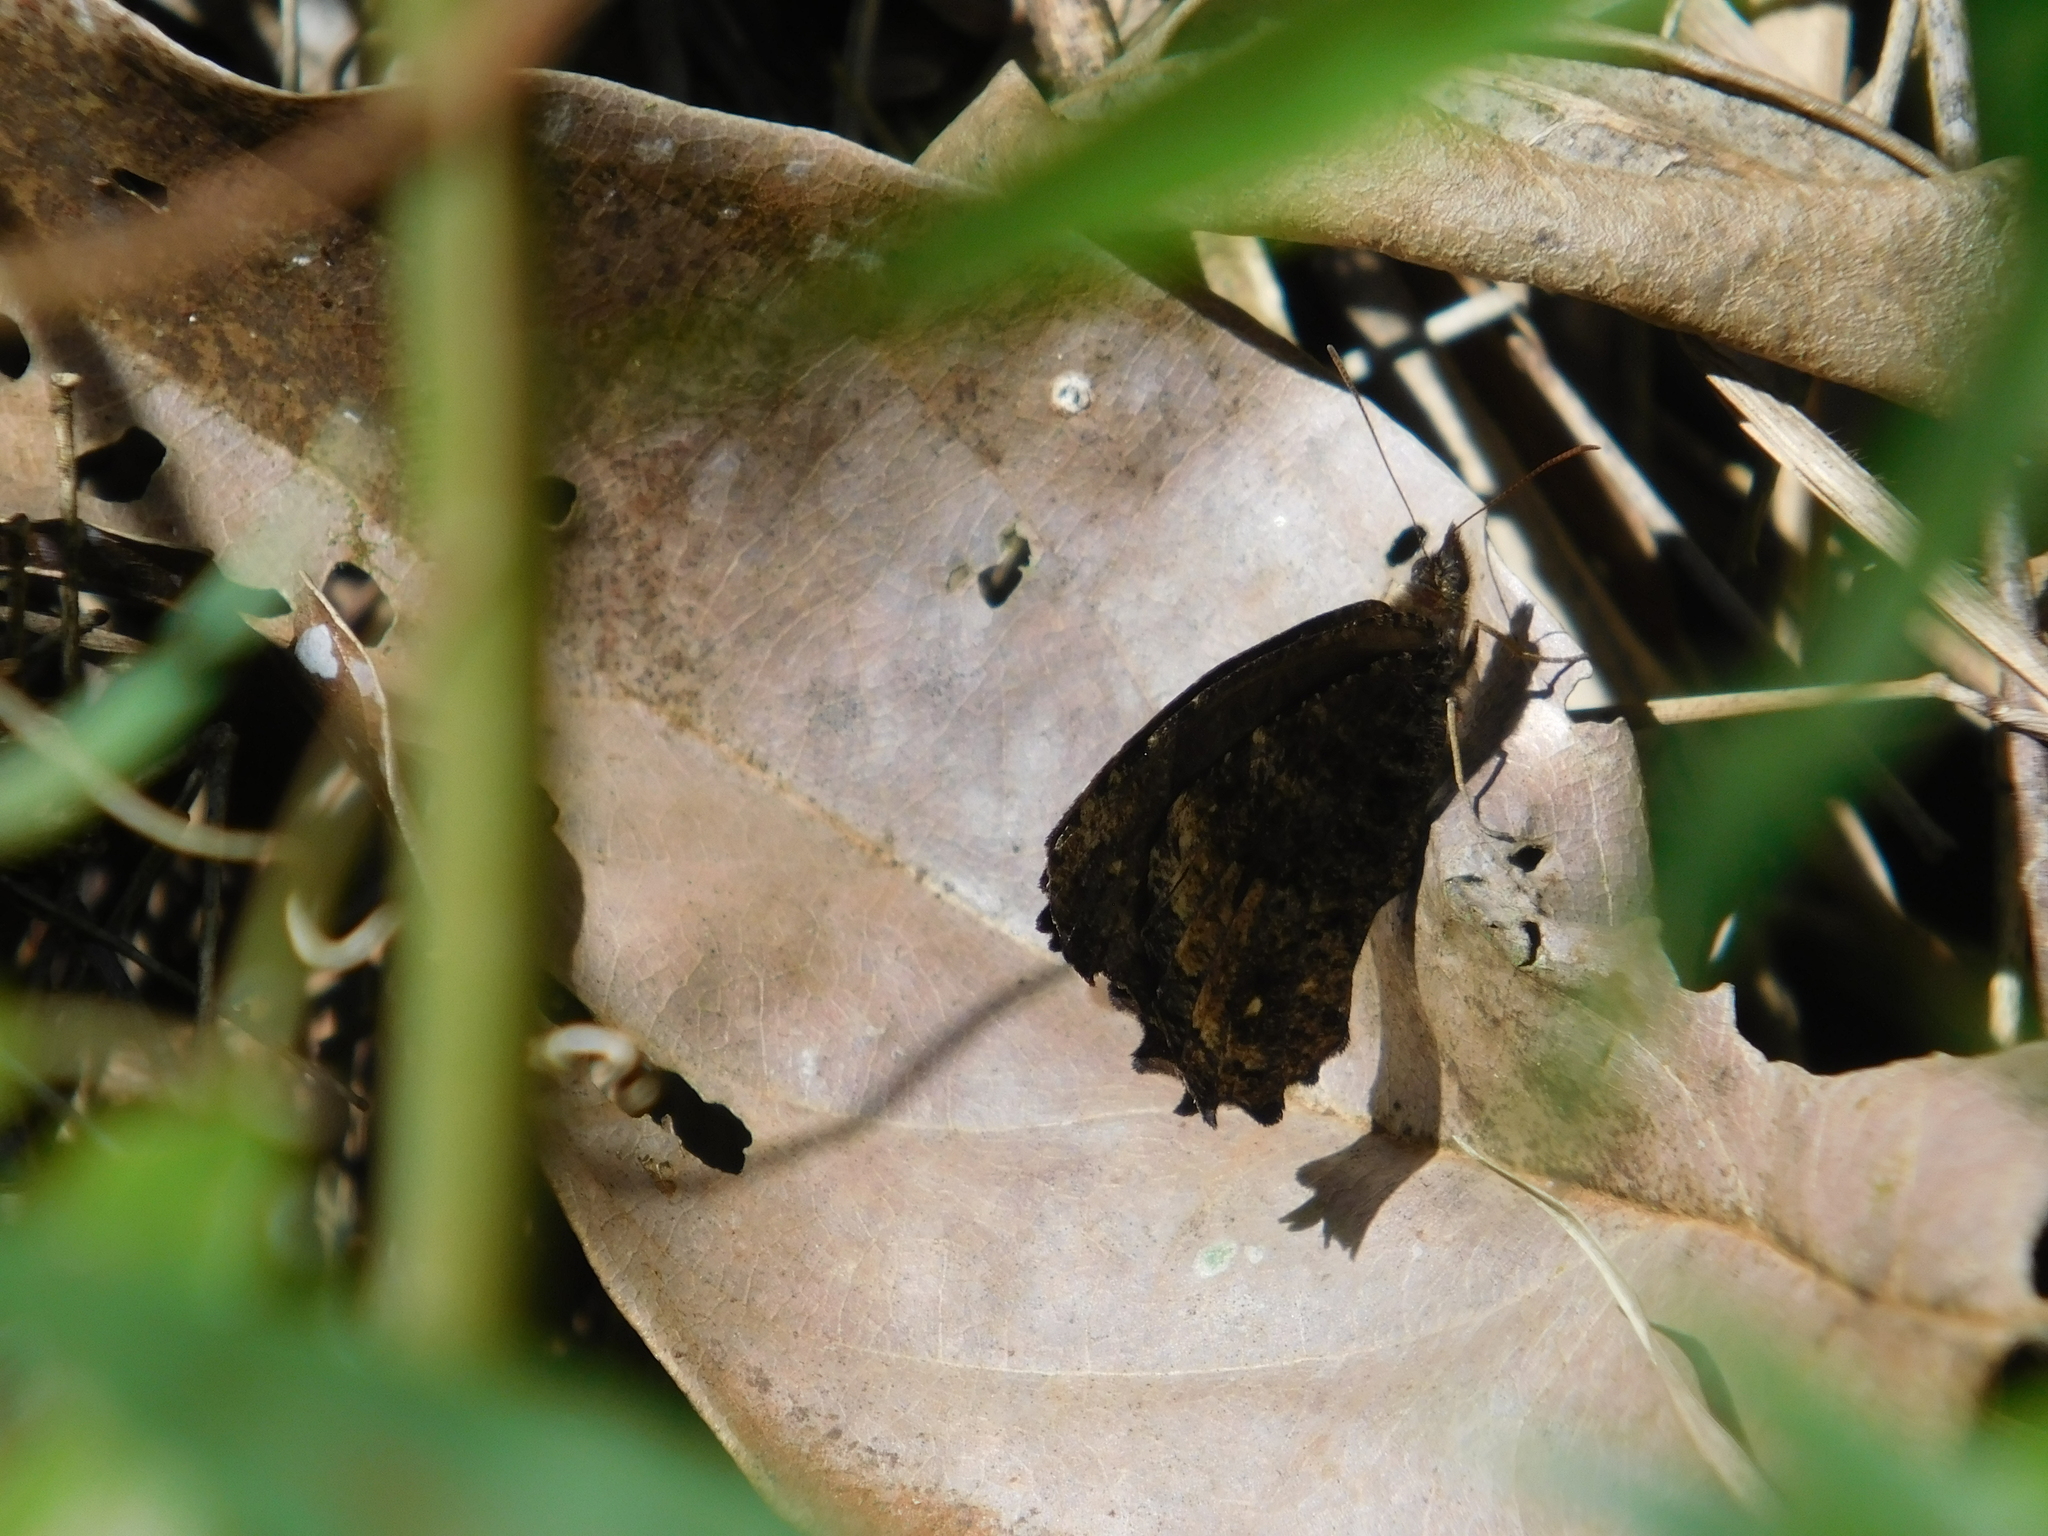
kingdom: Animalia
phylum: Arthropoda
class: Insecta
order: Lepidoptera
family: Nymphalidae
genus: Praepedaliodes
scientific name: Praepedaliodes phanias
